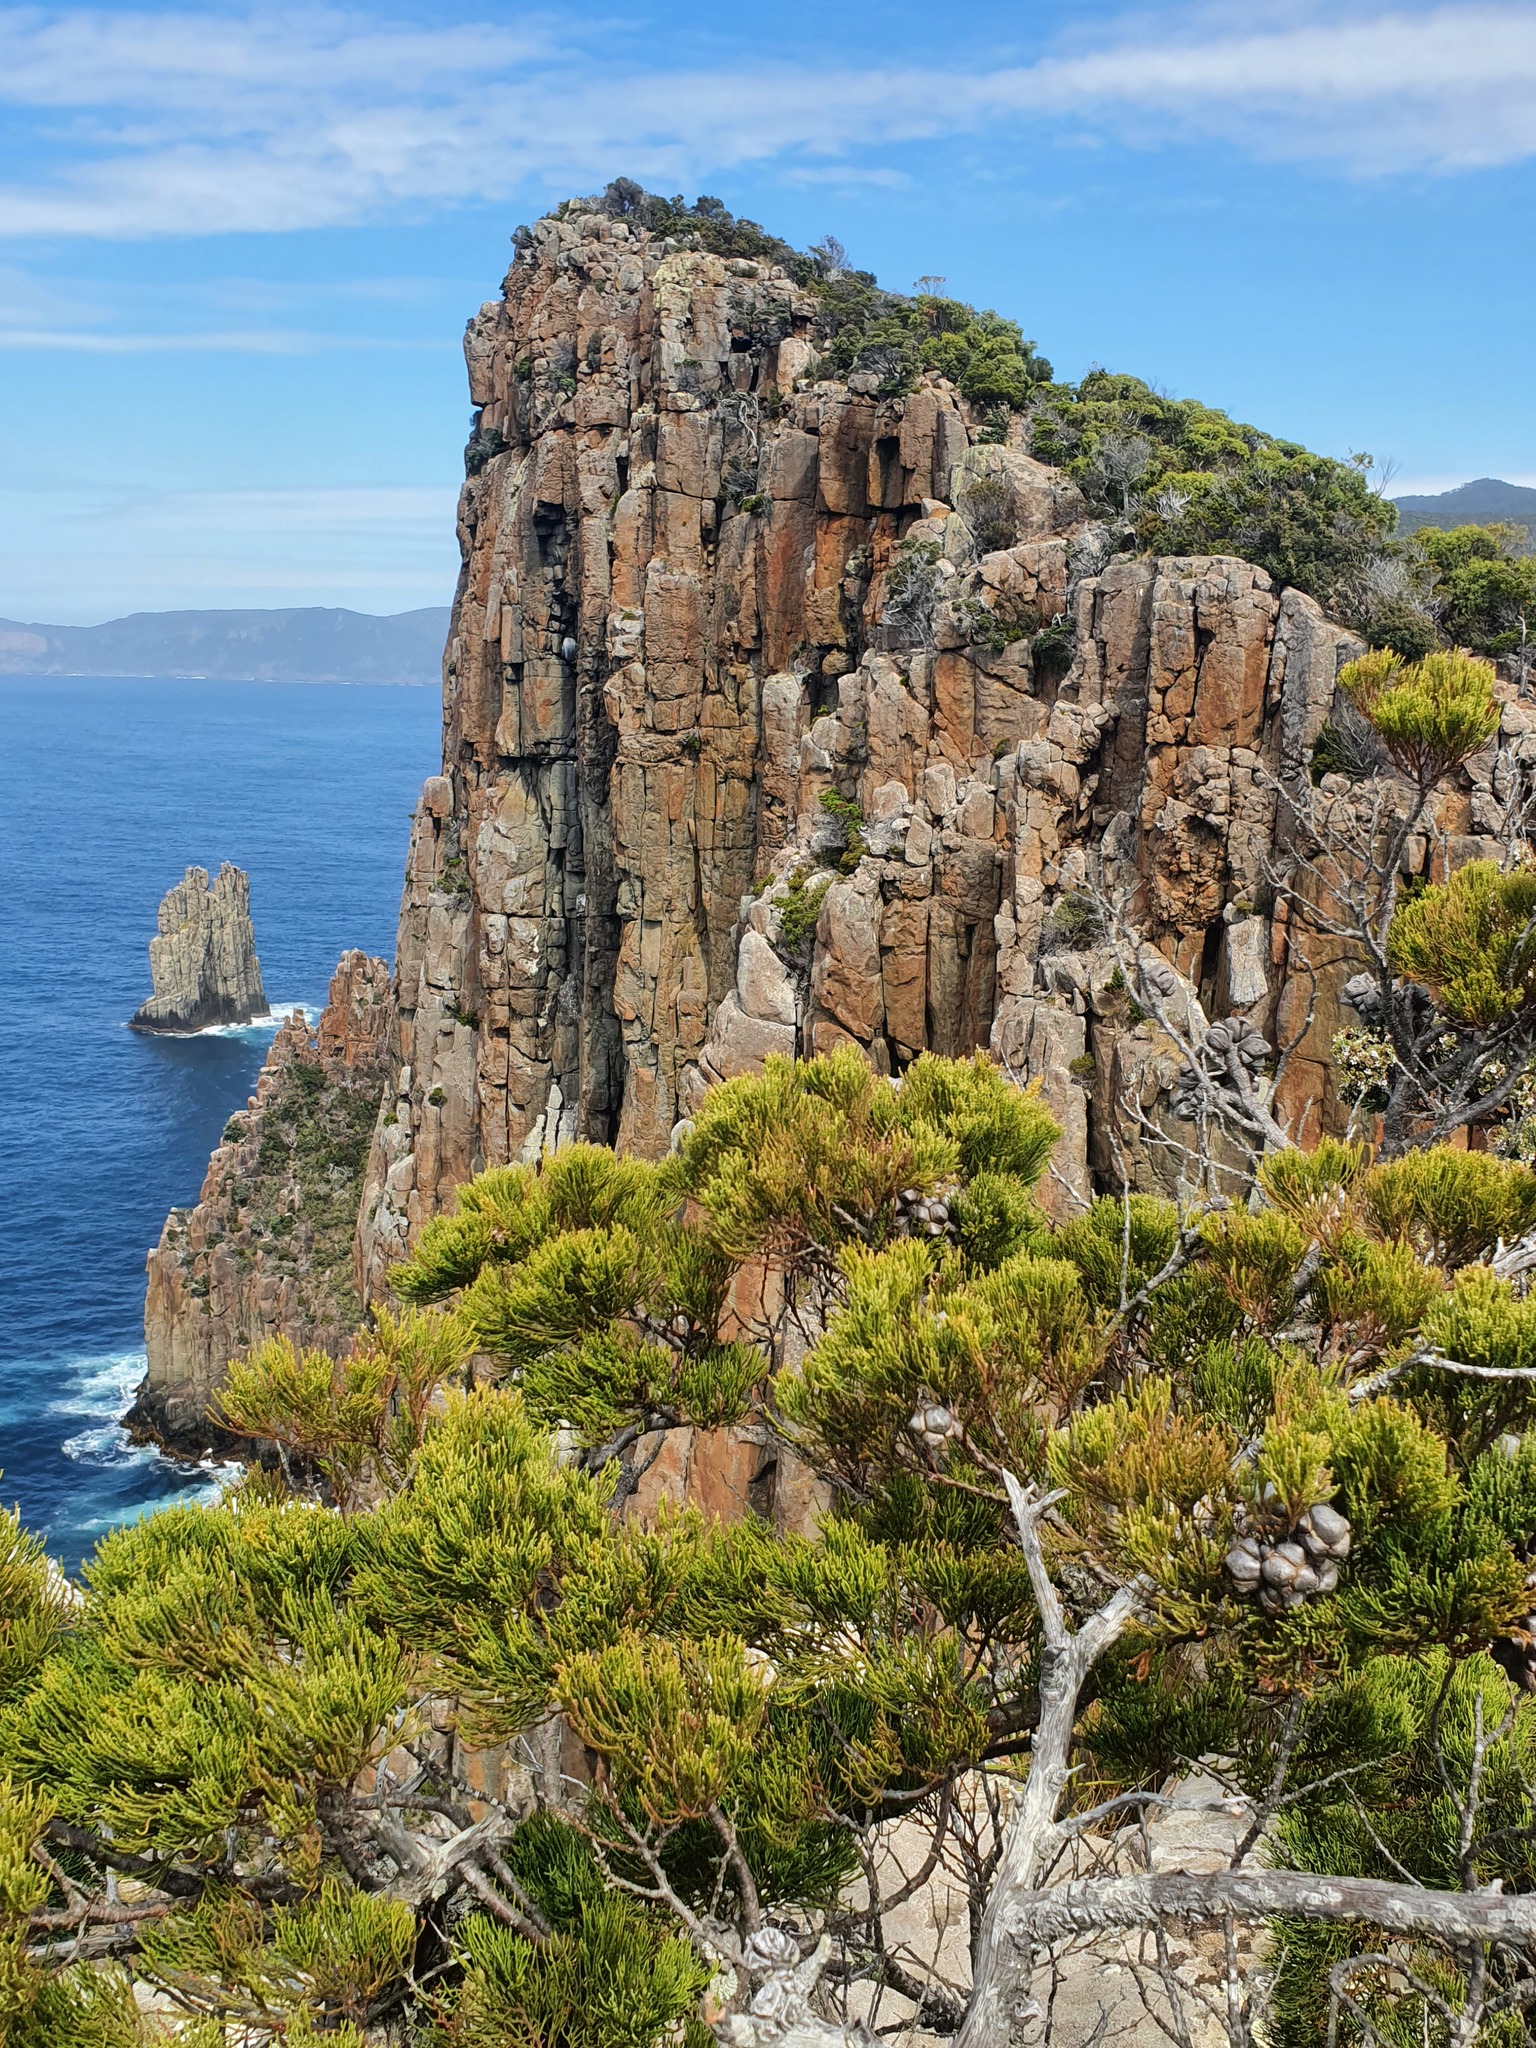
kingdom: Plantae
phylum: Tracheophyta
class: Pinopsida
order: Pinales
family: Cupressaceae
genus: Callitris
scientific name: Callitris rhomboidea
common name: Illawara mountain pine
